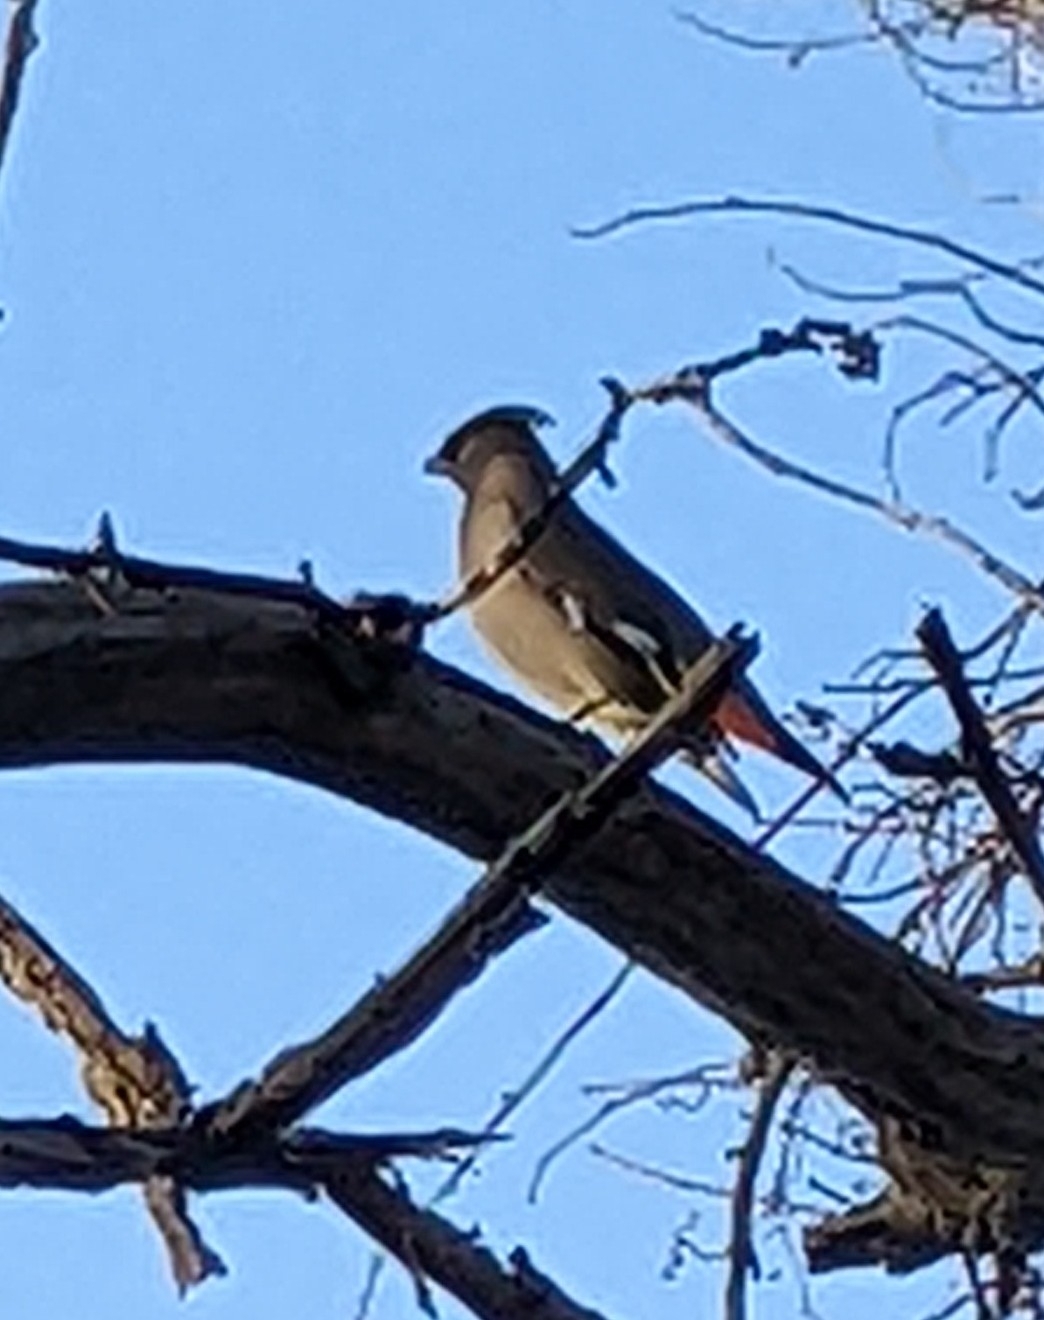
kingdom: Animalia
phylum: Chordata
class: Aves
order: Passeriformes
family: Bombycillidae
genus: Bombycilla
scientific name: Bombycilla garrulus
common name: Bohemian waxwing
